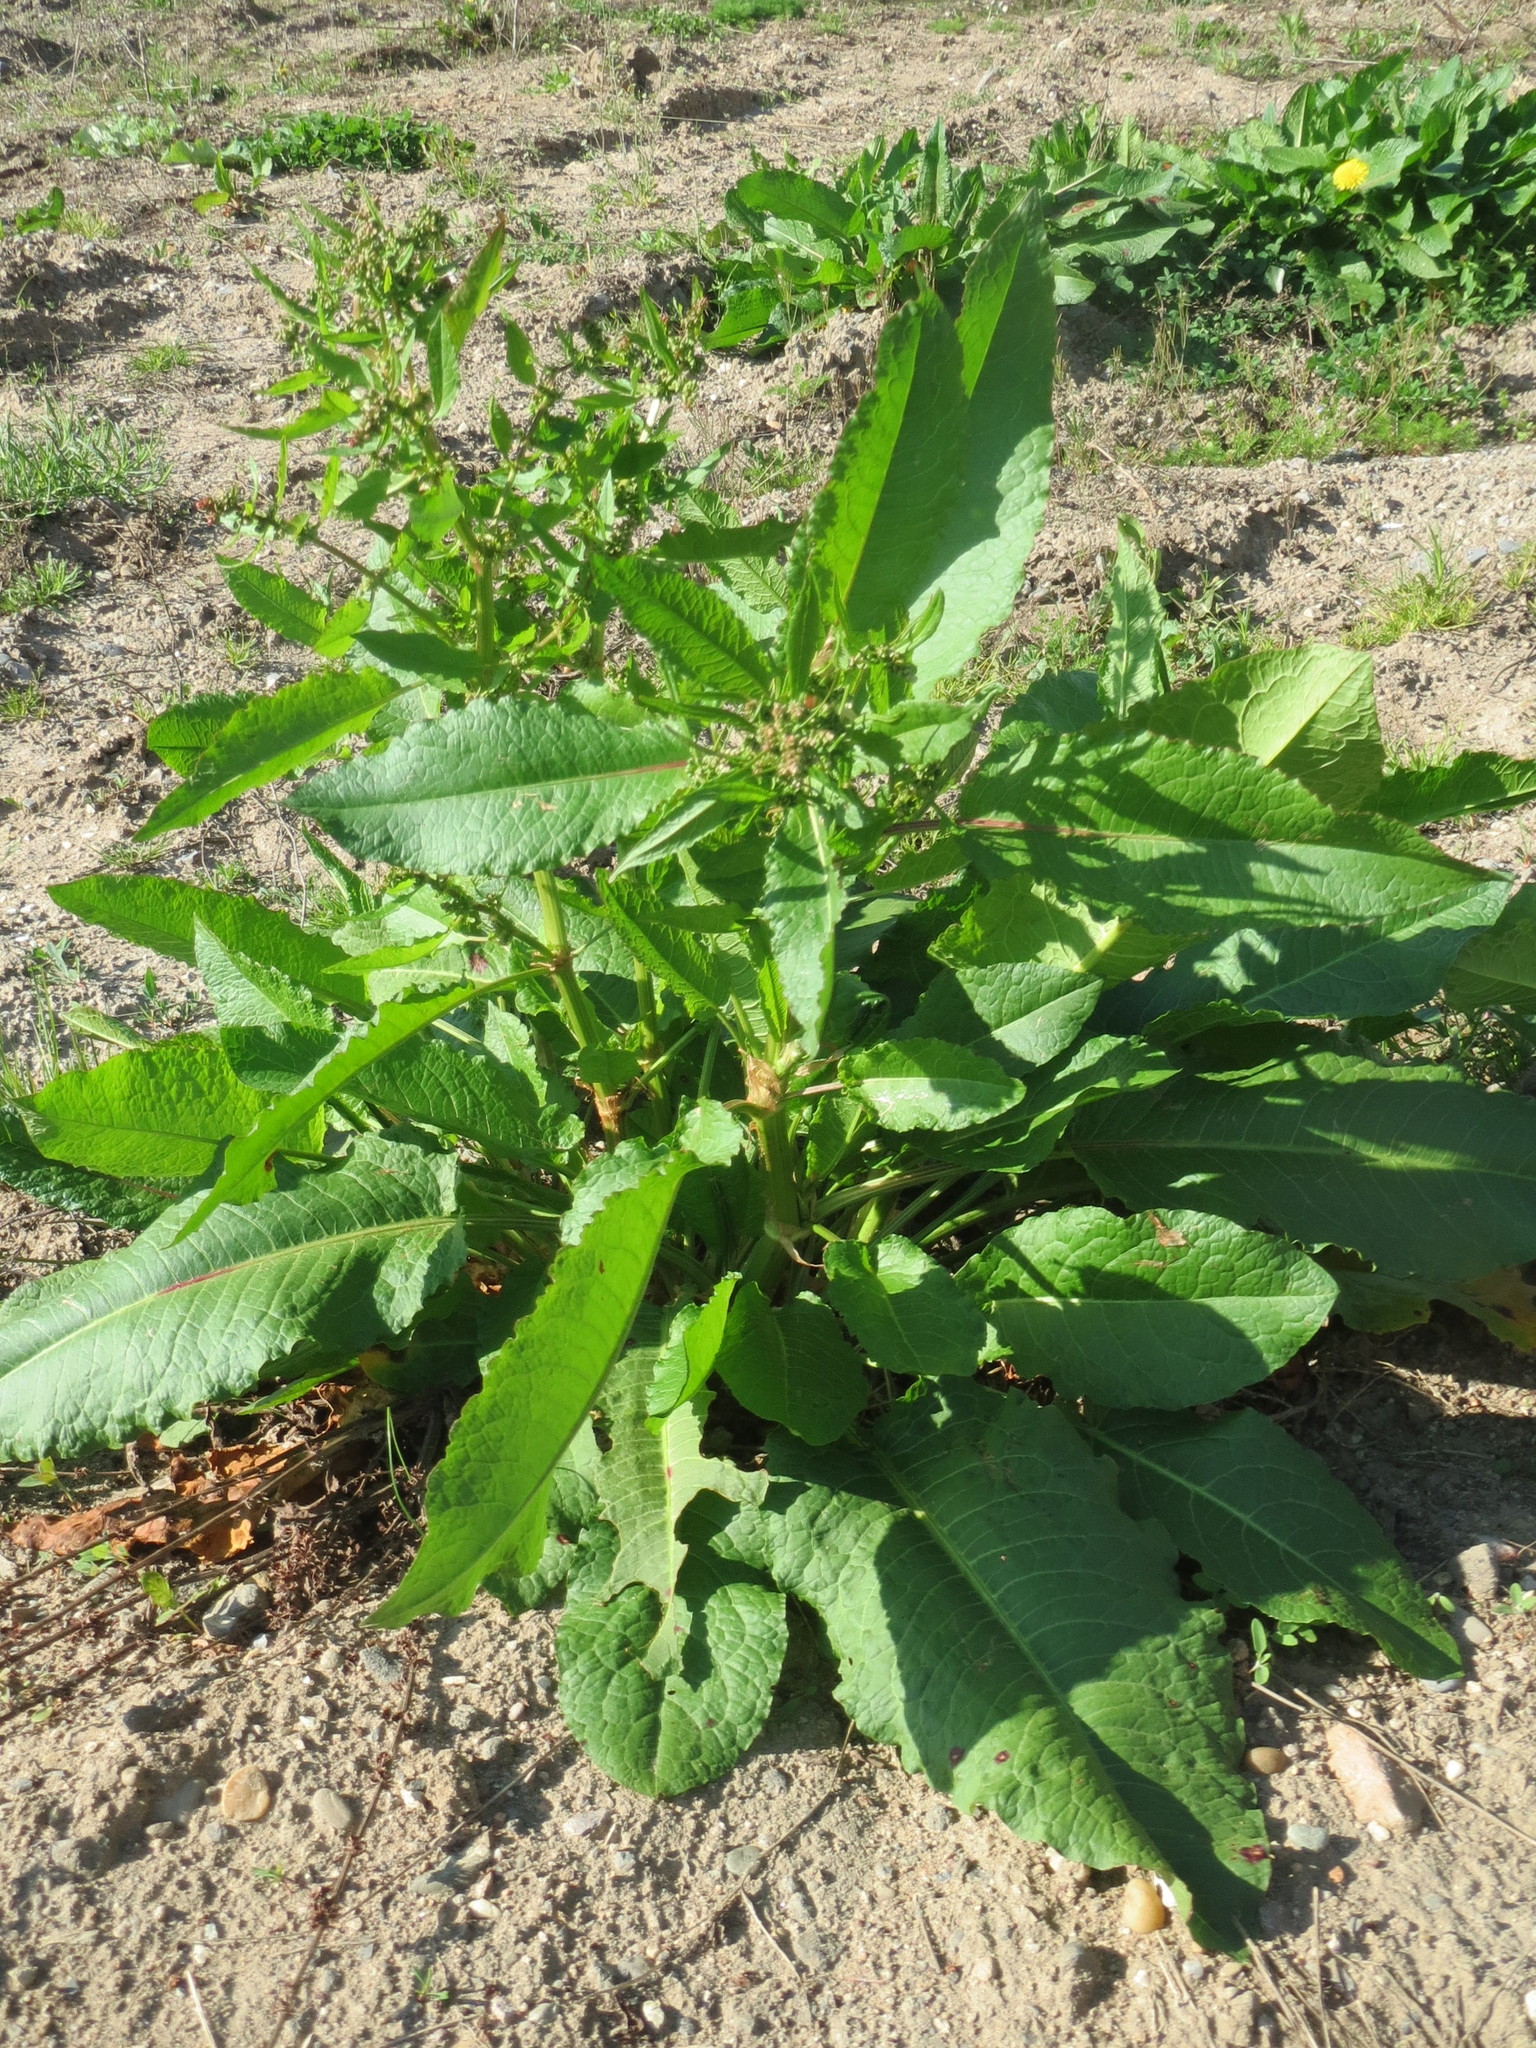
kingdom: Plantae
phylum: Tracheophyta
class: Magnoliopsida
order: Caryophyllales
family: Polygonaceae
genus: Rumex
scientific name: Rumex obtusifolius
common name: Bitter dock
